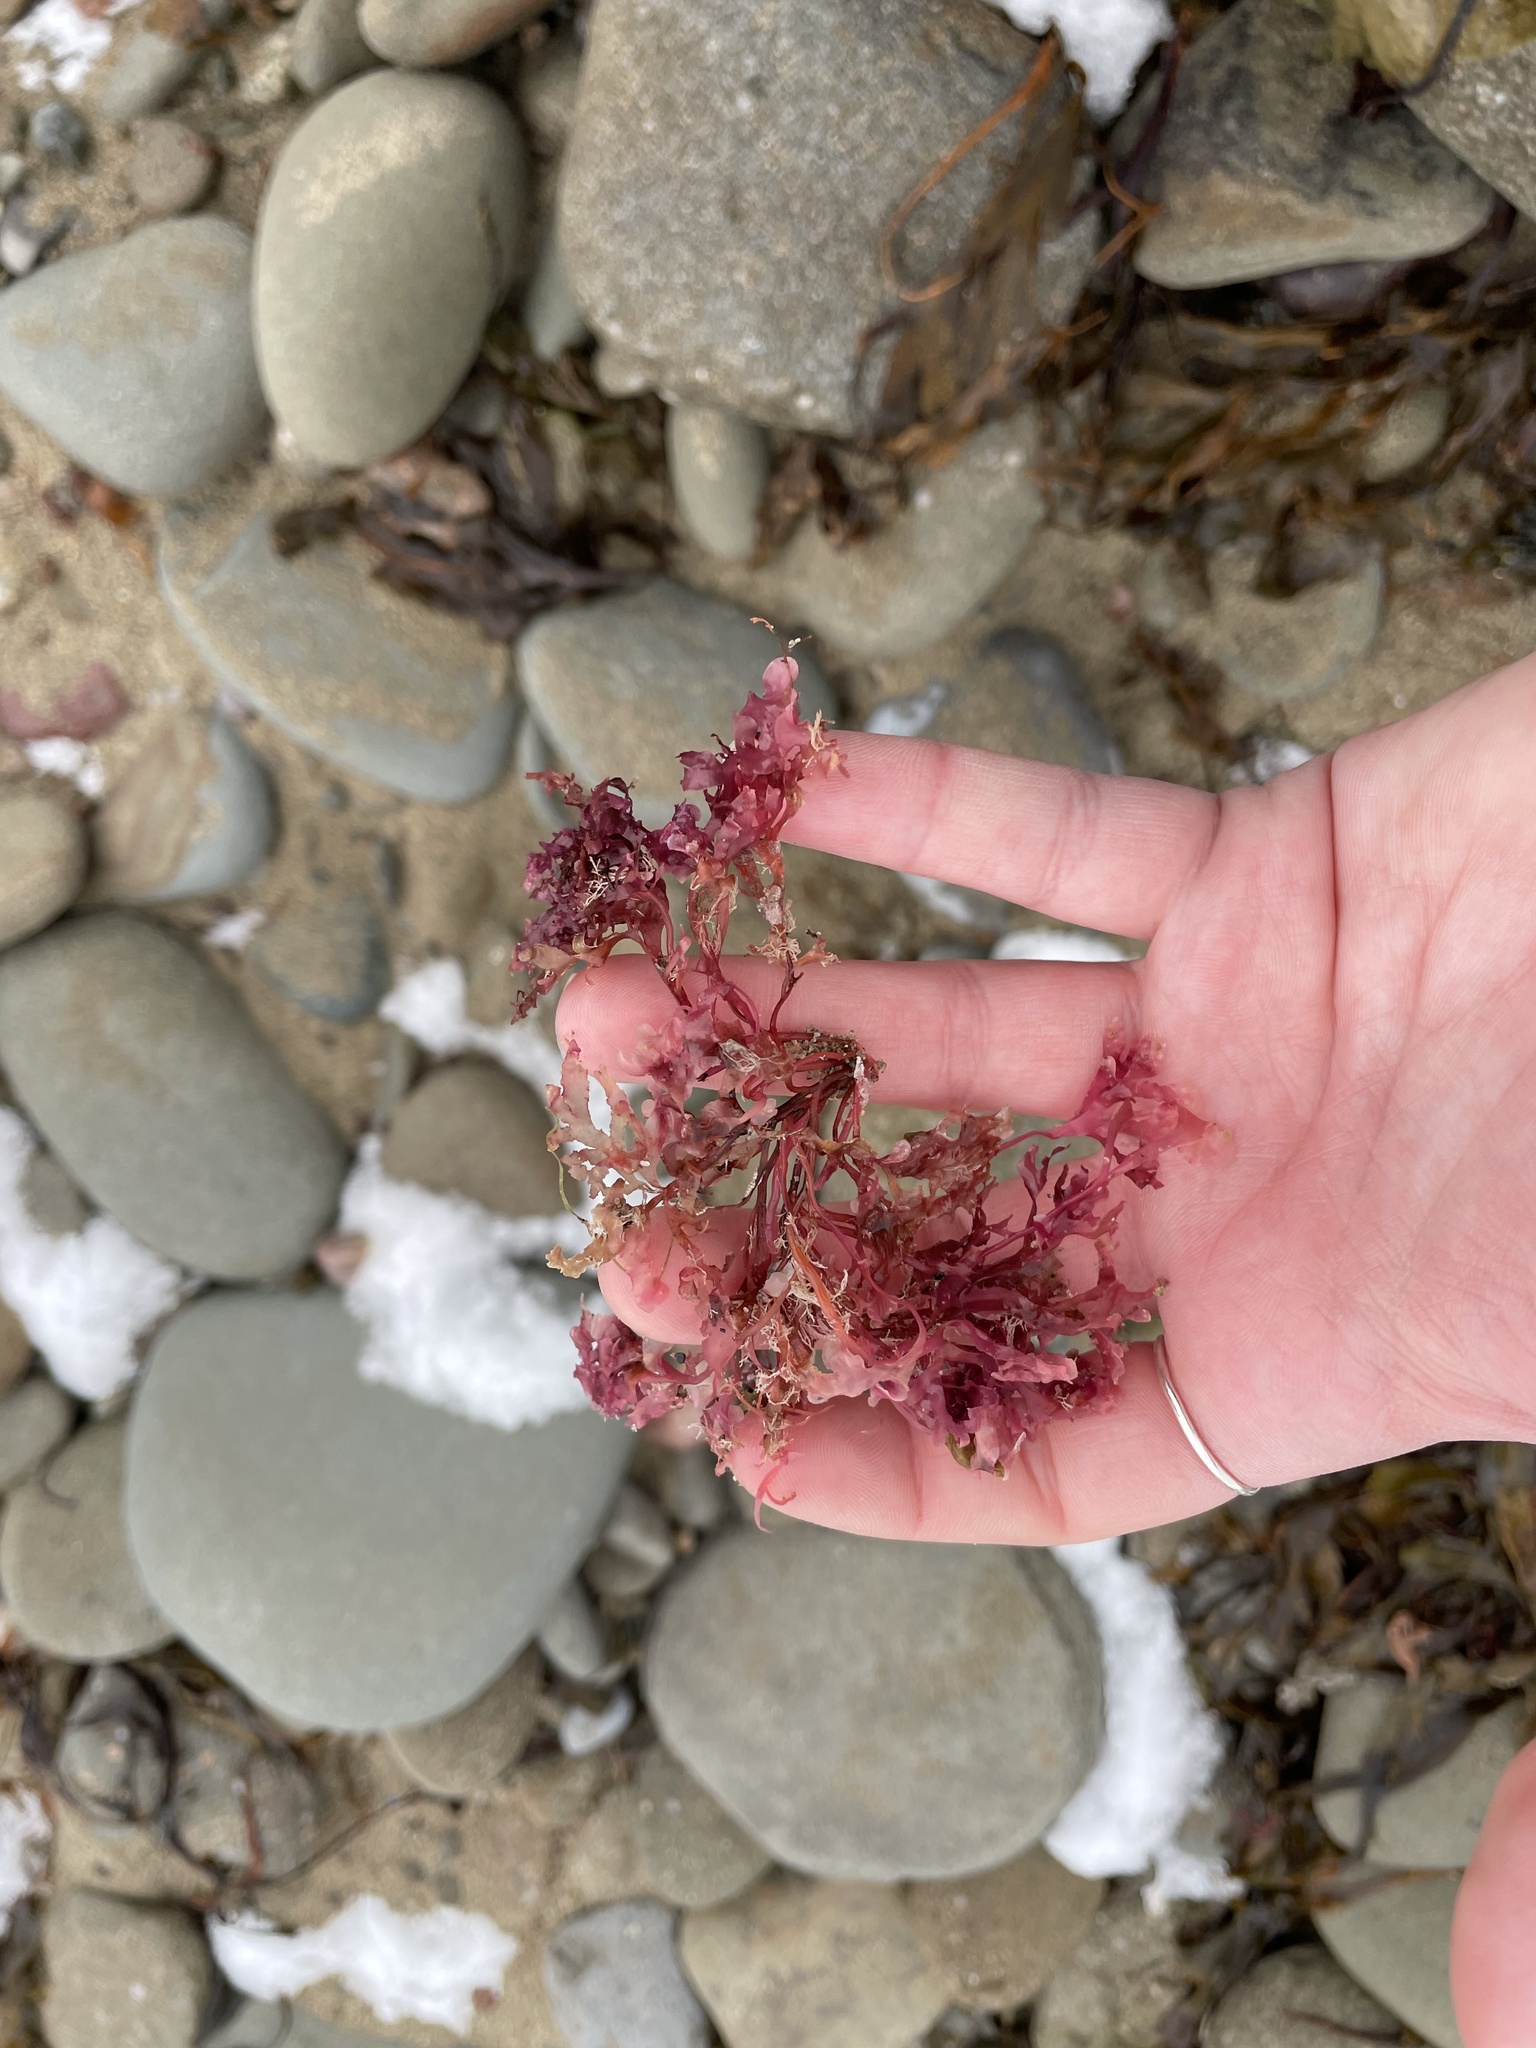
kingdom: Plantae
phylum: Rhodophyta
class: Florideophyceae
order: Gigartinales
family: Gigartinaceae
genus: Chondrus
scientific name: Chondrus crispus
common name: Carrageen
